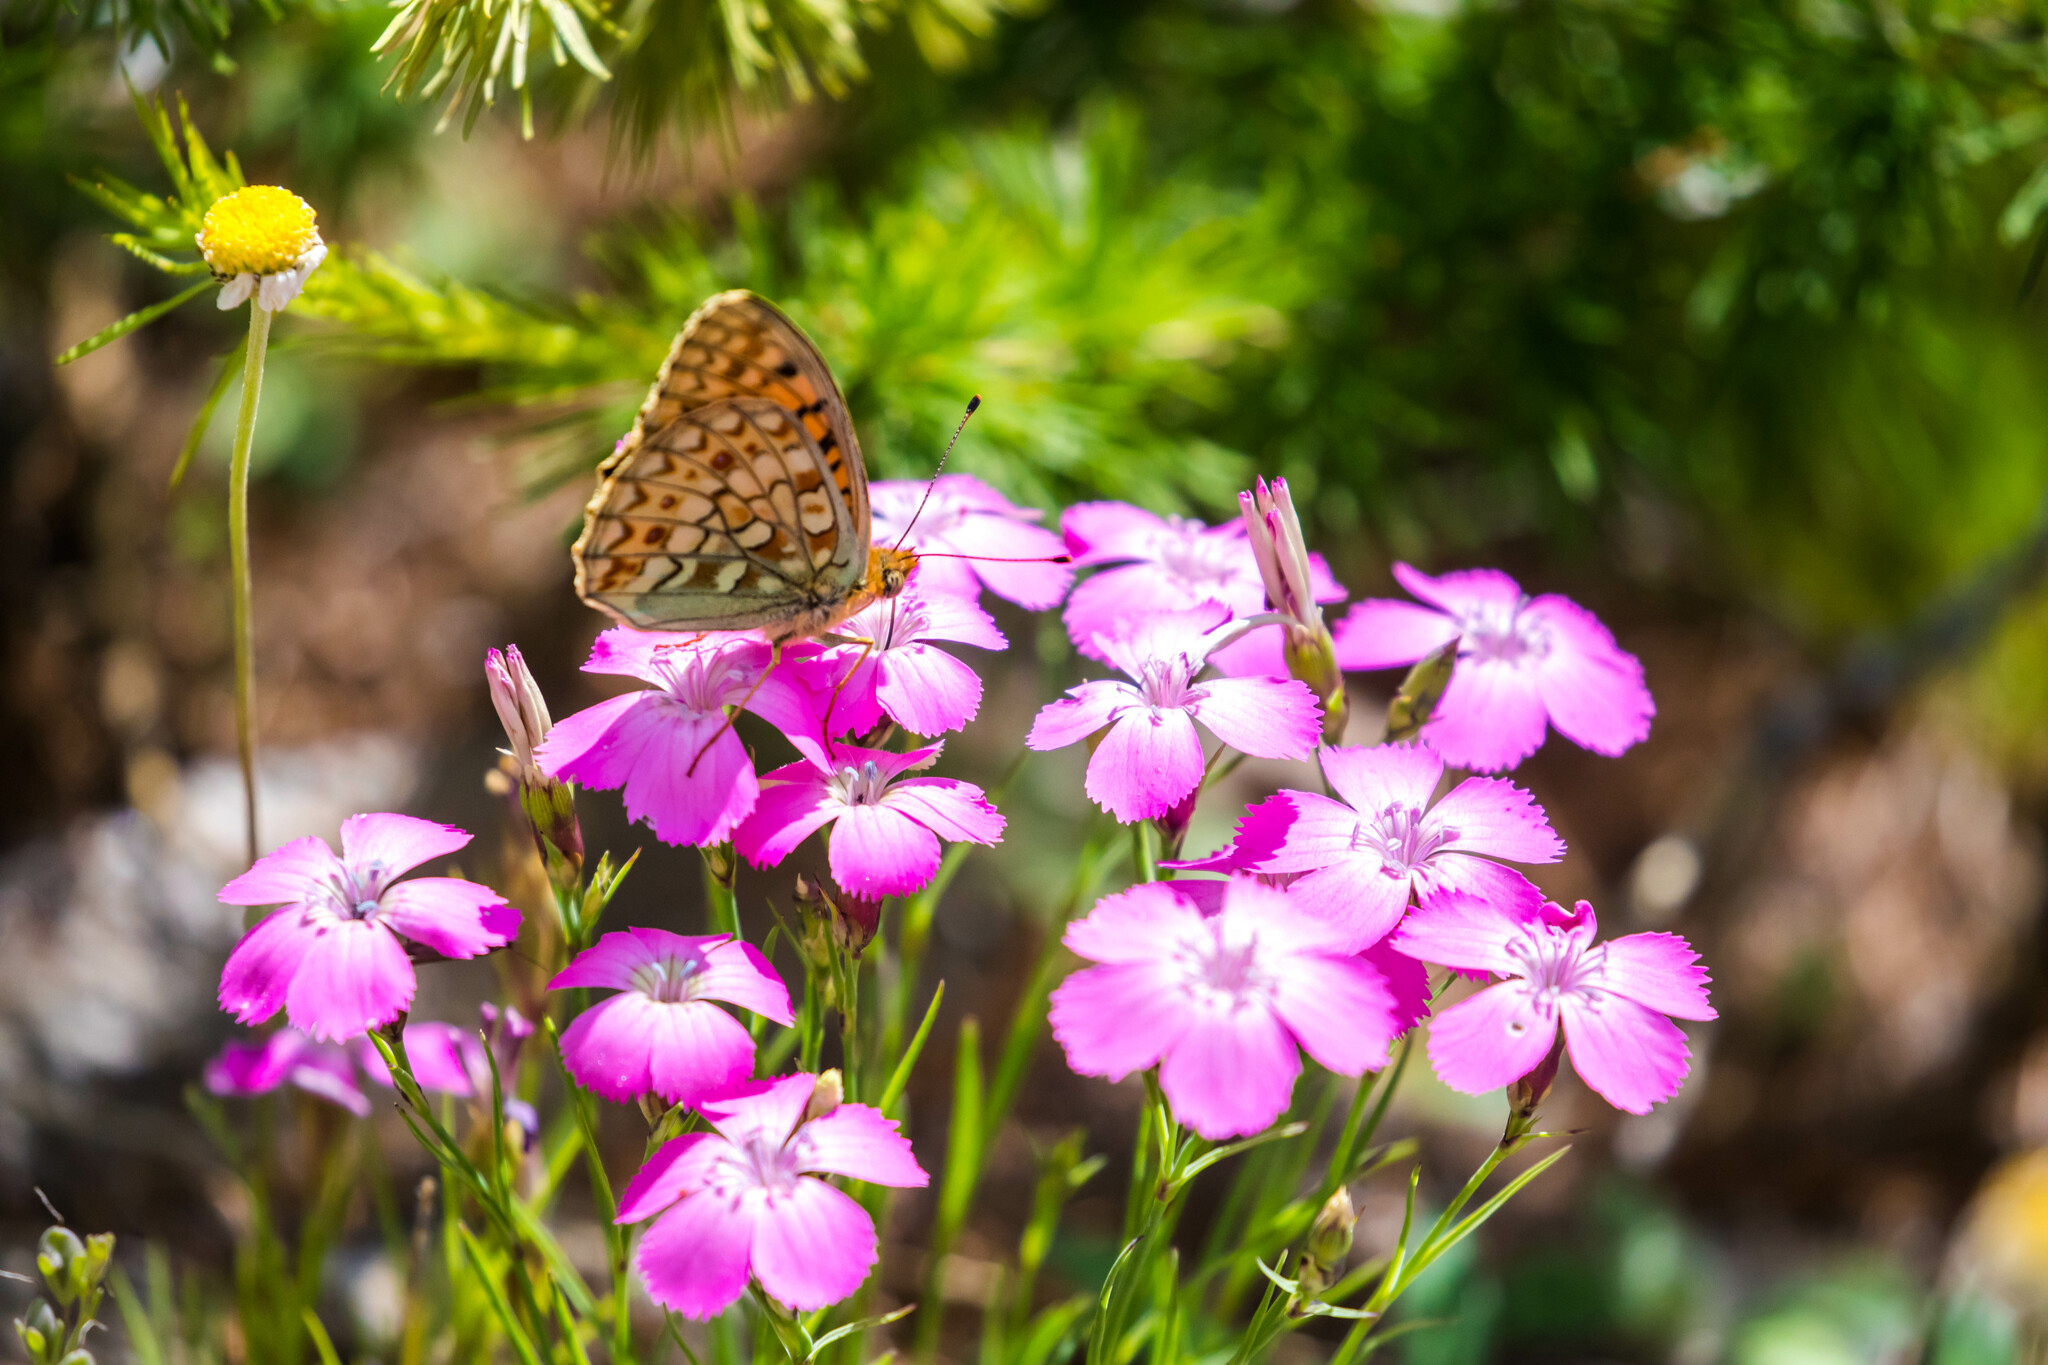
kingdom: Animalia
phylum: Arthropoda
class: Insecta
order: Lepidoptera
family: Nymphalidae
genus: Fabriciana
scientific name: Fabriciana niobe
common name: Niobe fritillary
